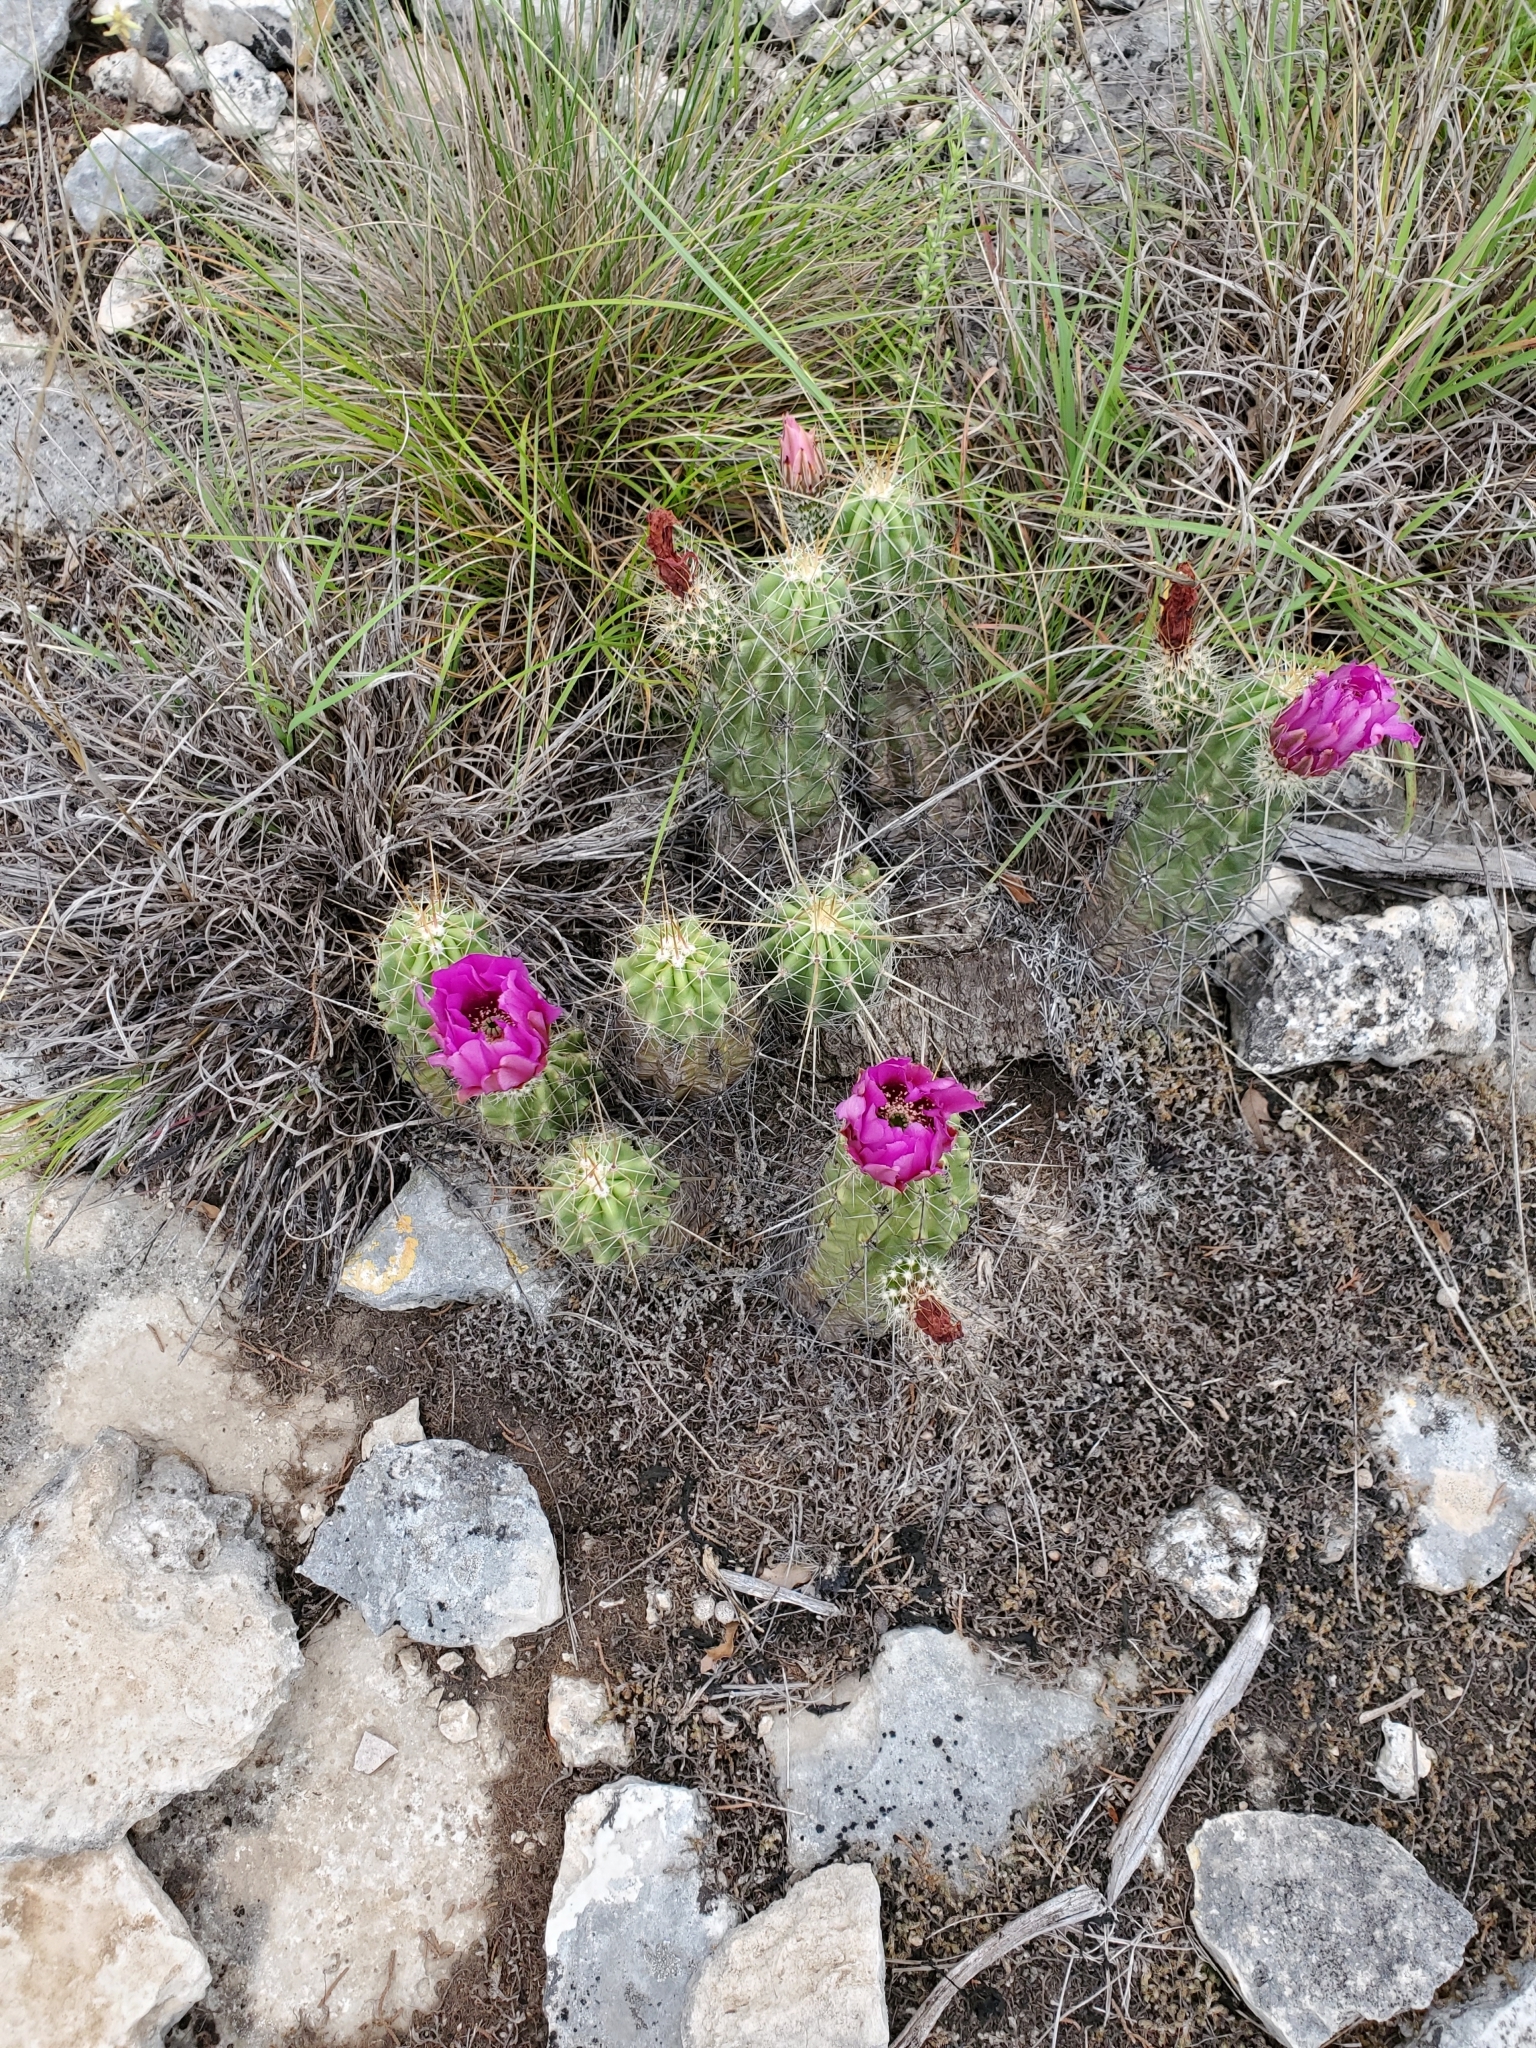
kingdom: Plantae
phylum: Tracheophyta
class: Magnoliopsida
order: Caryophyllales
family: Cactaceae
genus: Echinocereus
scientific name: Echinocereus enneacanthus
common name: Pitaya
